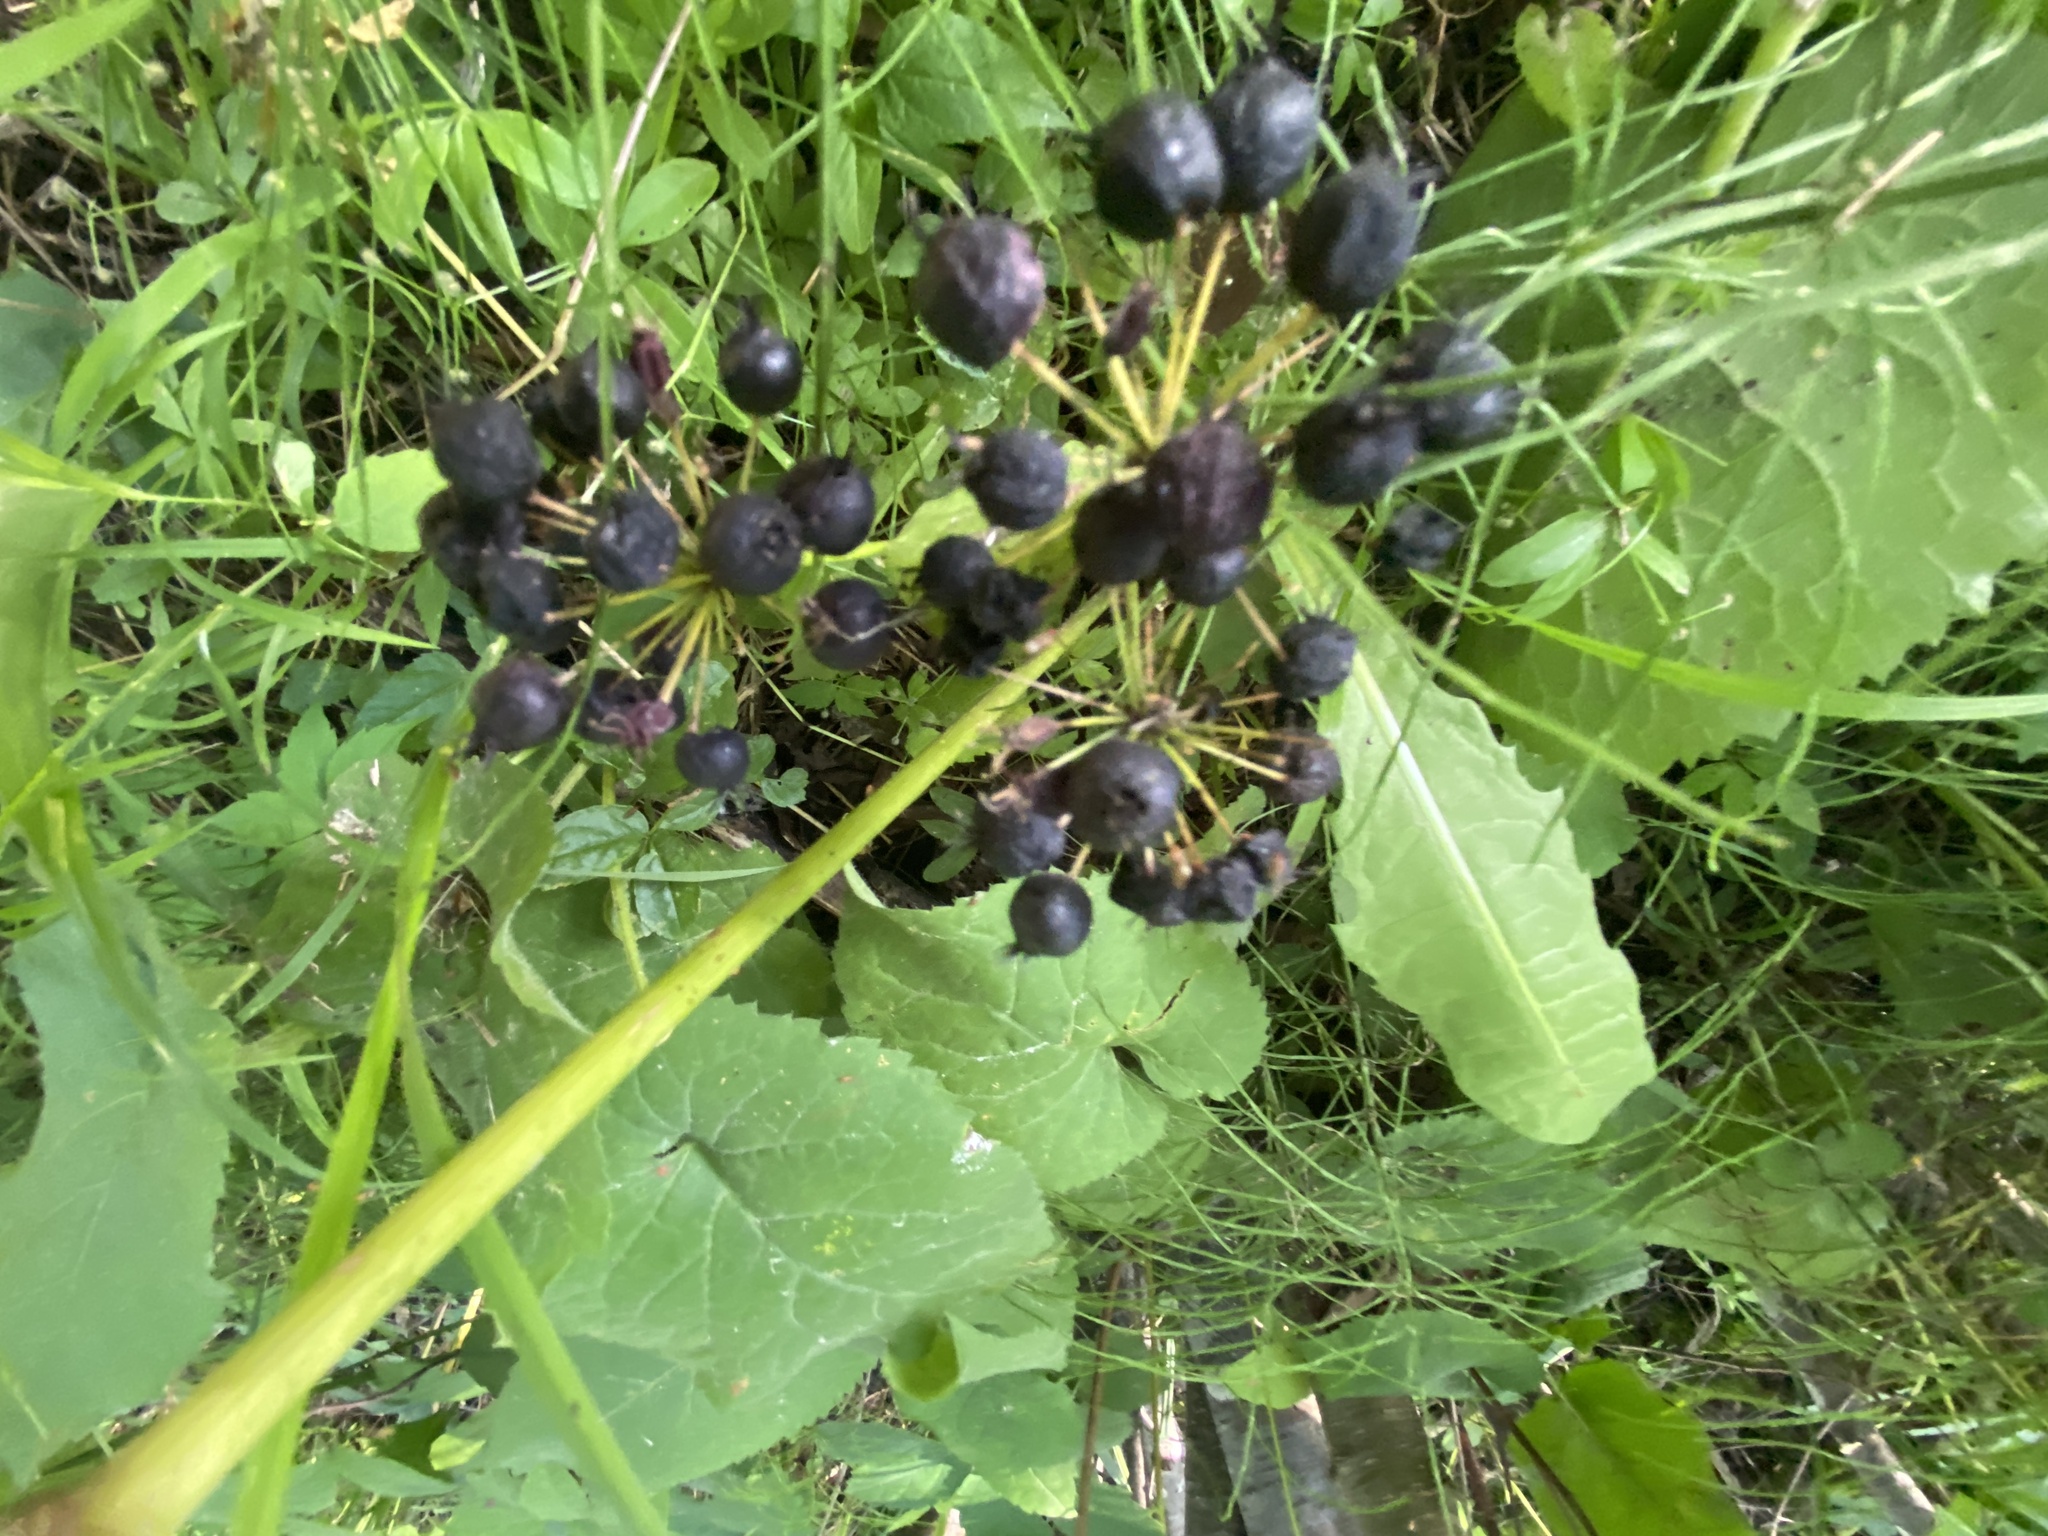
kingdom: Plantae
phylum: Tracheophyta
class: Magnoliopsida
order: Apiales
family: Araliaceae
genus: Aralia
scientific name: Aralia nudicaulis
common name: Wild sarsaparilla
